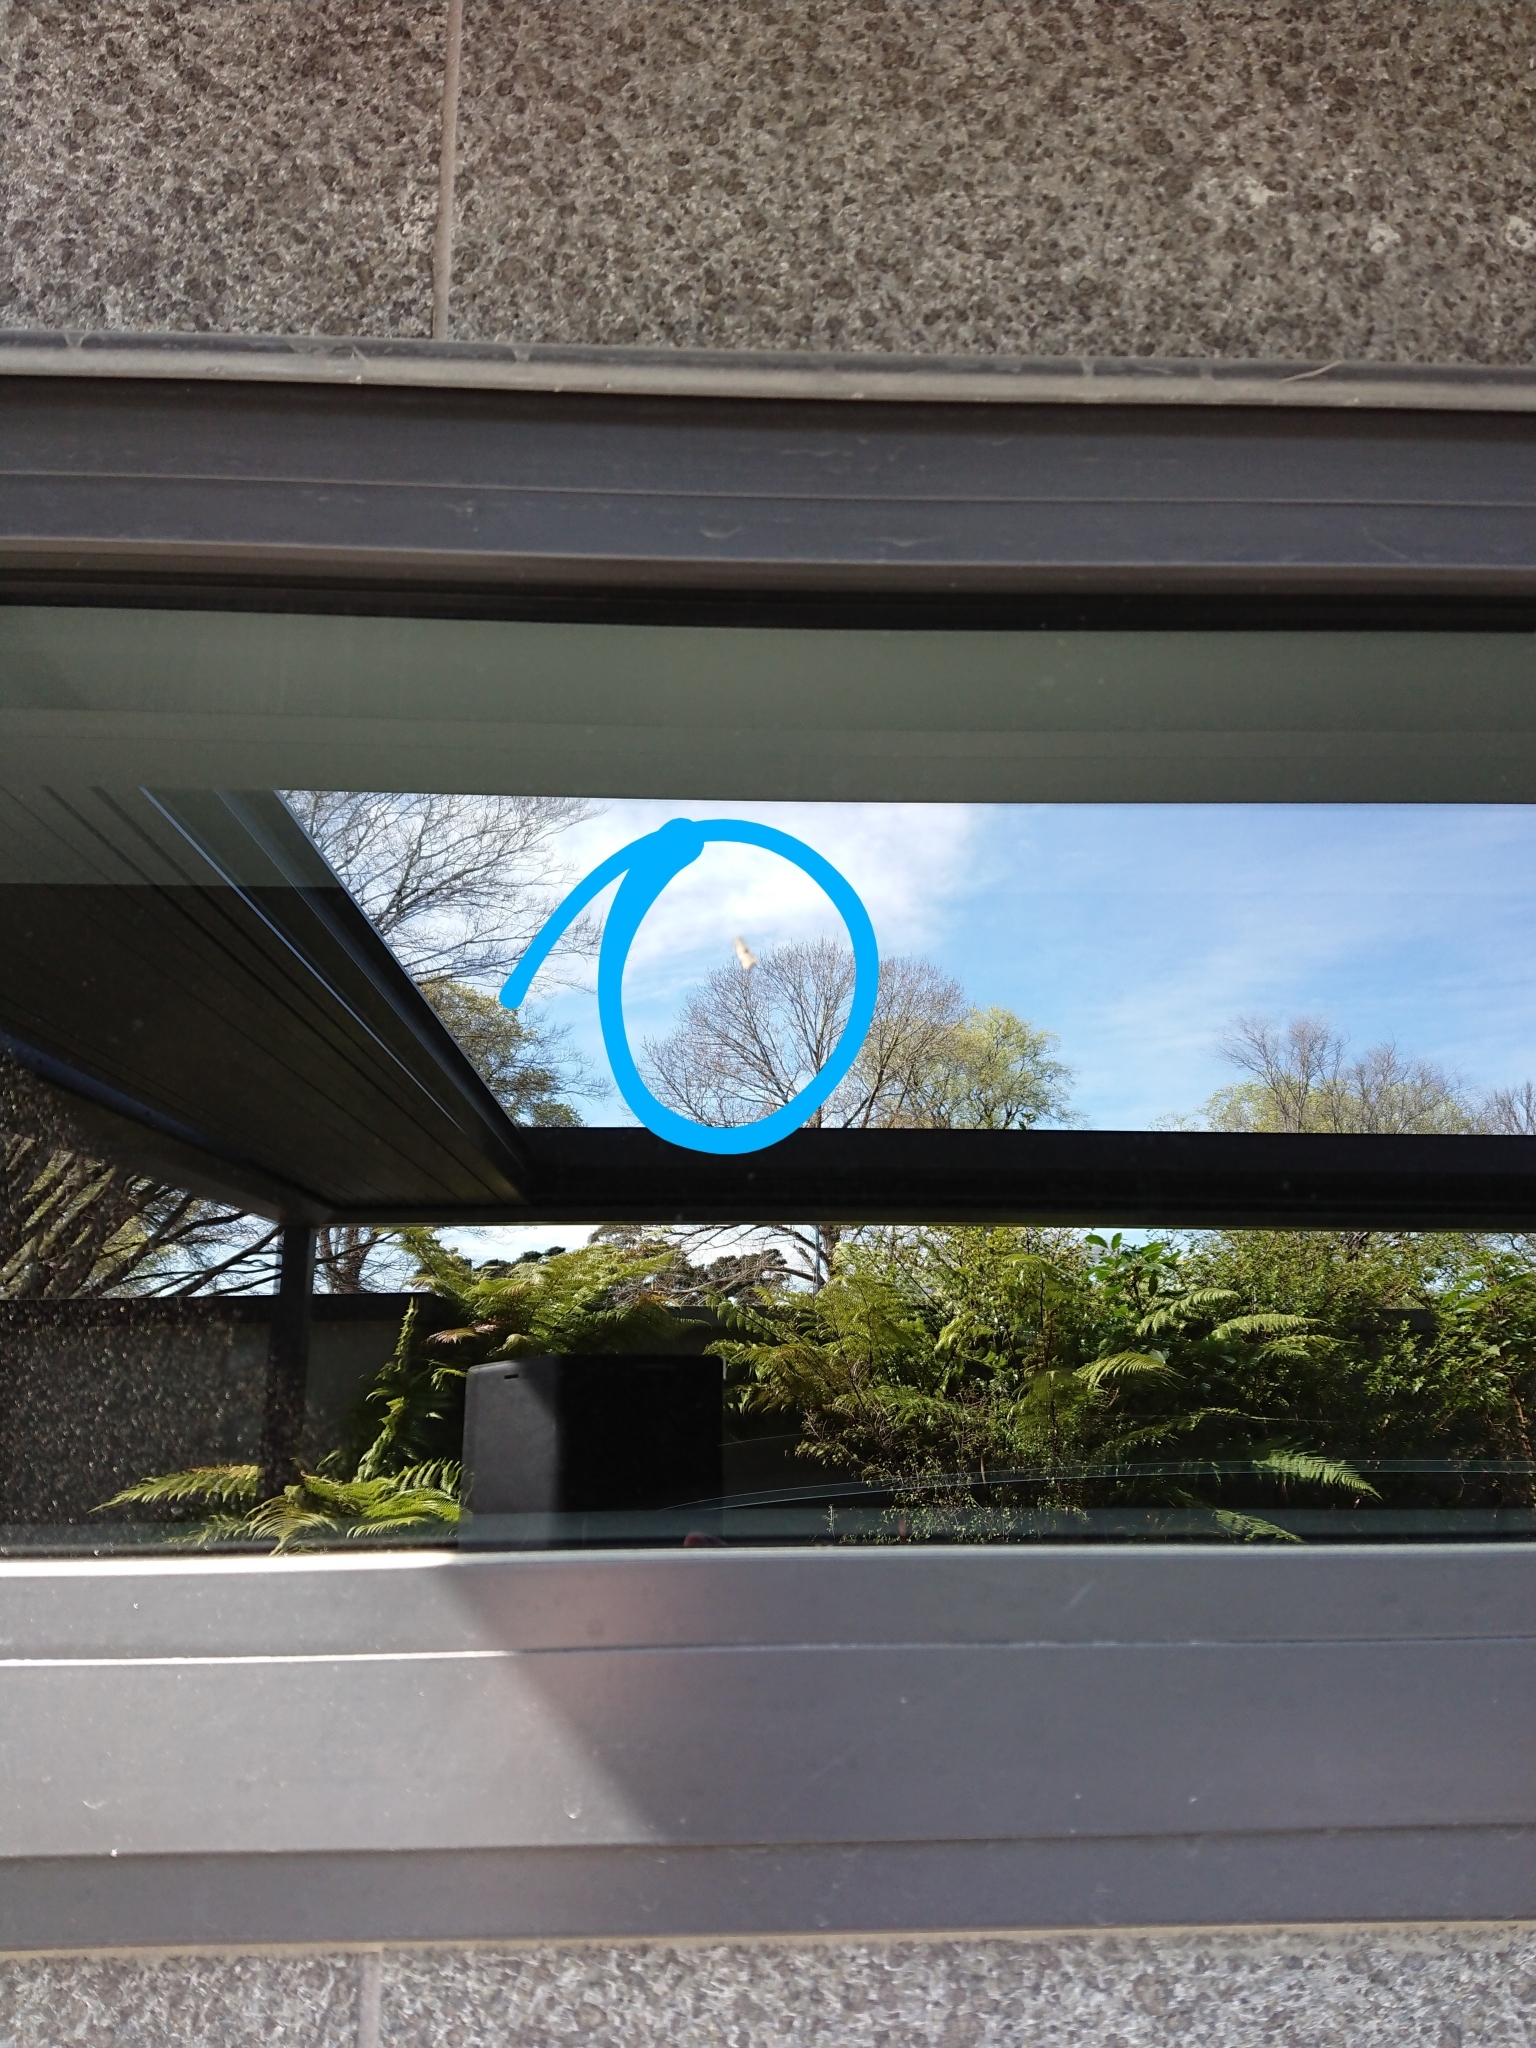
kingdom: Animalia
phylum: Arthropoda
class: Insecta
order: Lepidoptera
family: Tortricidae
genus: Harmologa
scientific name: Harmologa amplexana
